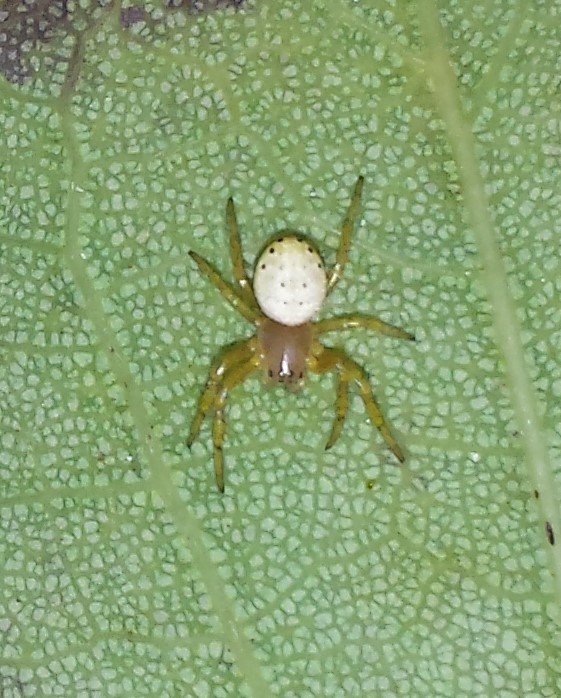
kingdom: Animalia
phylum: Arthropoda
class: Arachnida
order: Araneae
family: Araneidae
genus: Araniella
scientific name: Araniella displicata
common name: Sixspotted orb weaver
